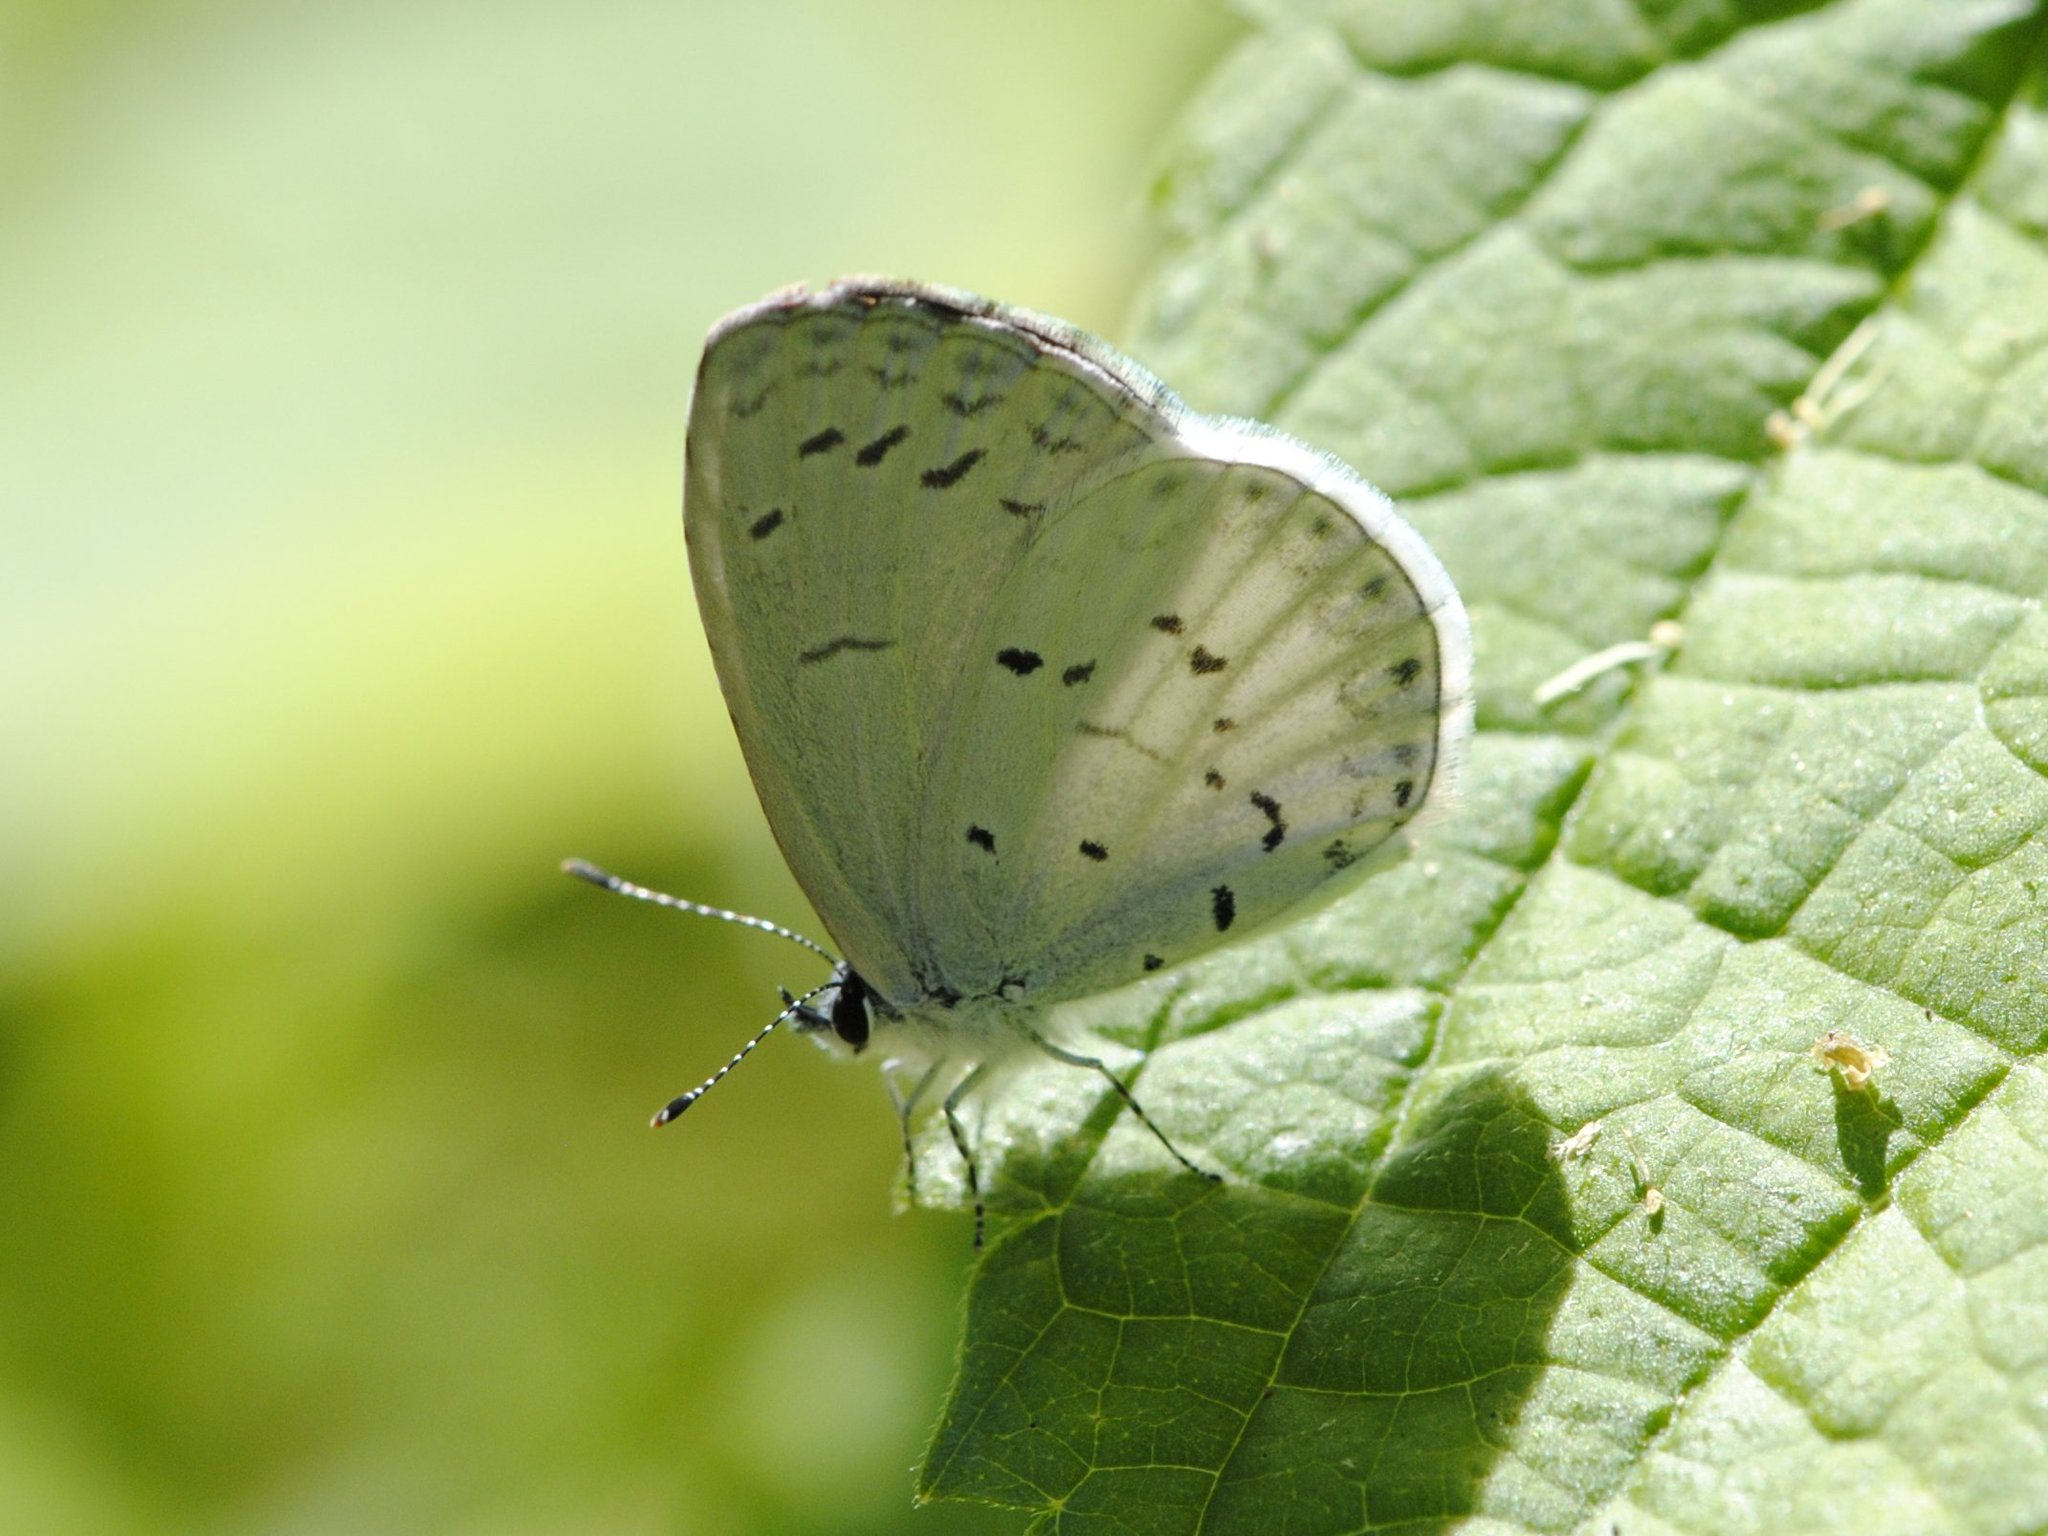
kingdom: Animalia
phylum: Arthropoda
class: Insecta
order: Lepidoptera
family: Lycaenidae
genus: Cyaniris
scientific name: Cyaniris neglecta
